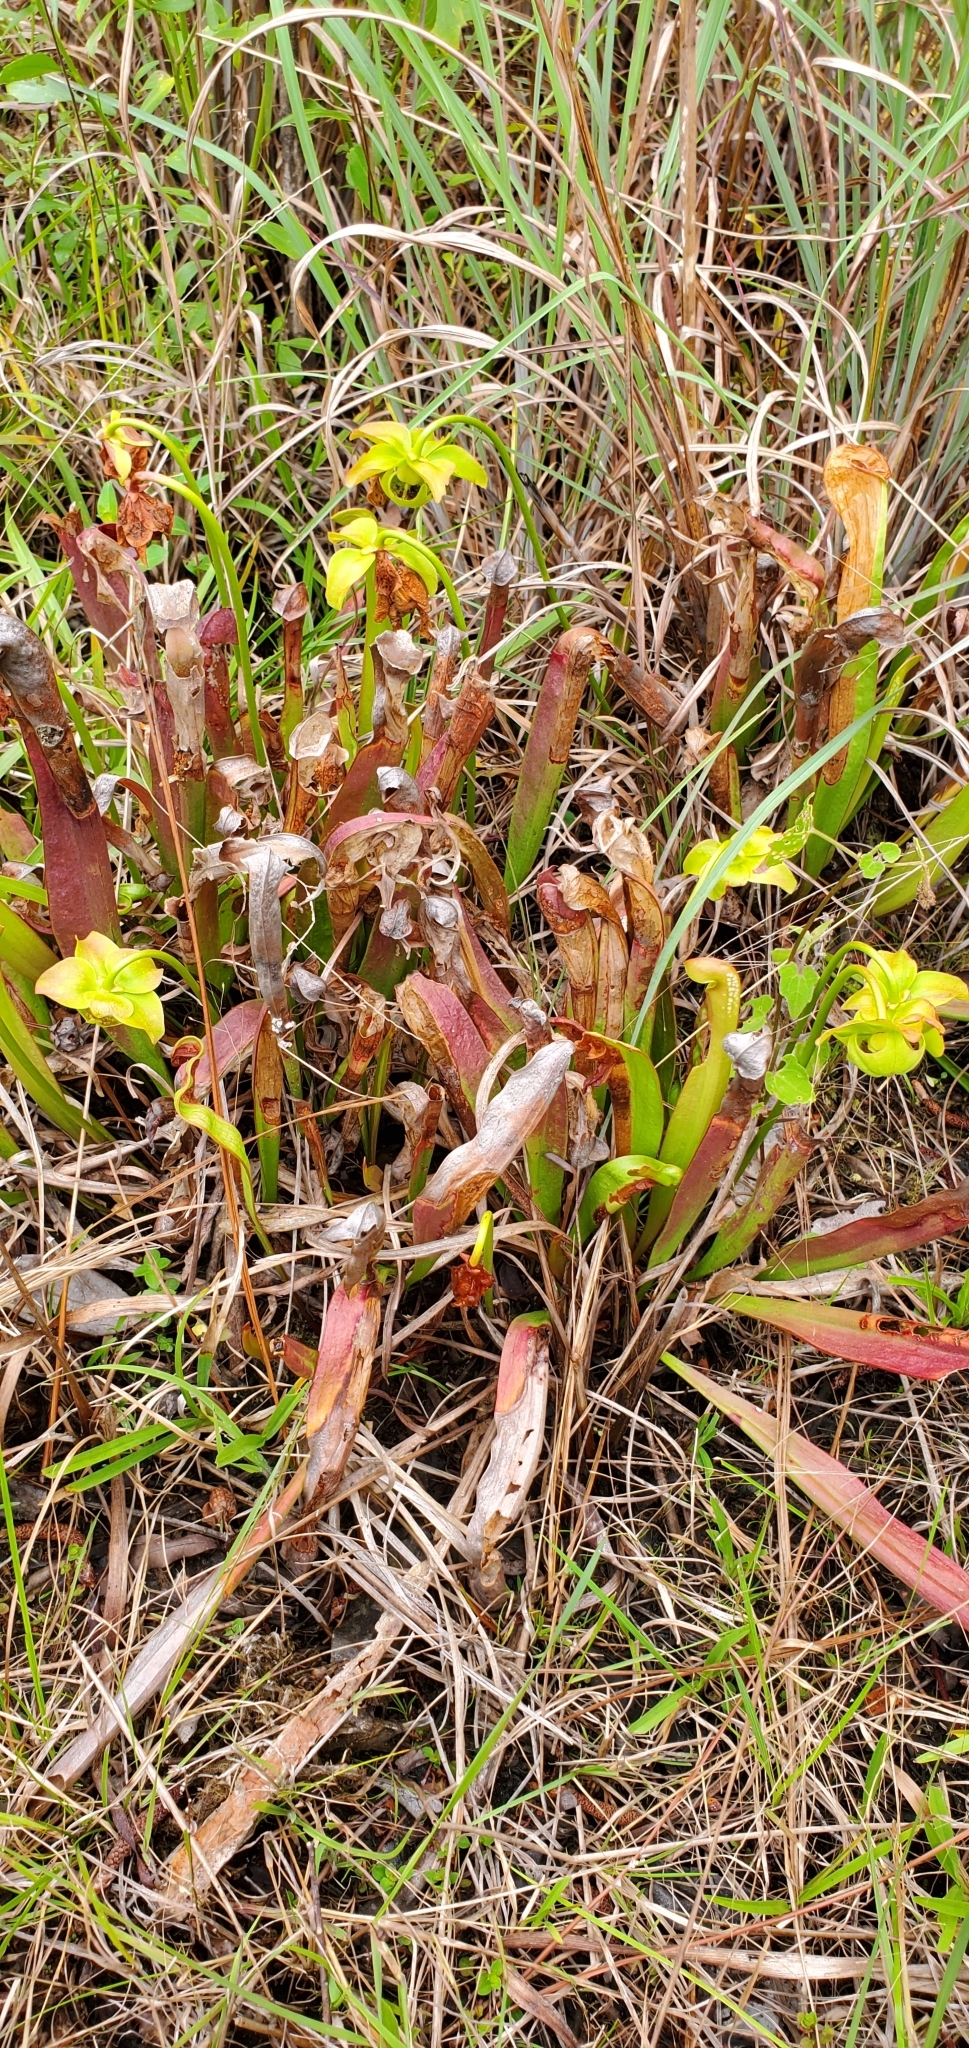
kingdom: Plantae
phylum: Tracheophyta
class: Magnoliopsida
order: Ericales
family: Sarraceniaceae
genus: Sarracenia
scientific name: Sarracenia minor
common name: Rainhat-trumpet
